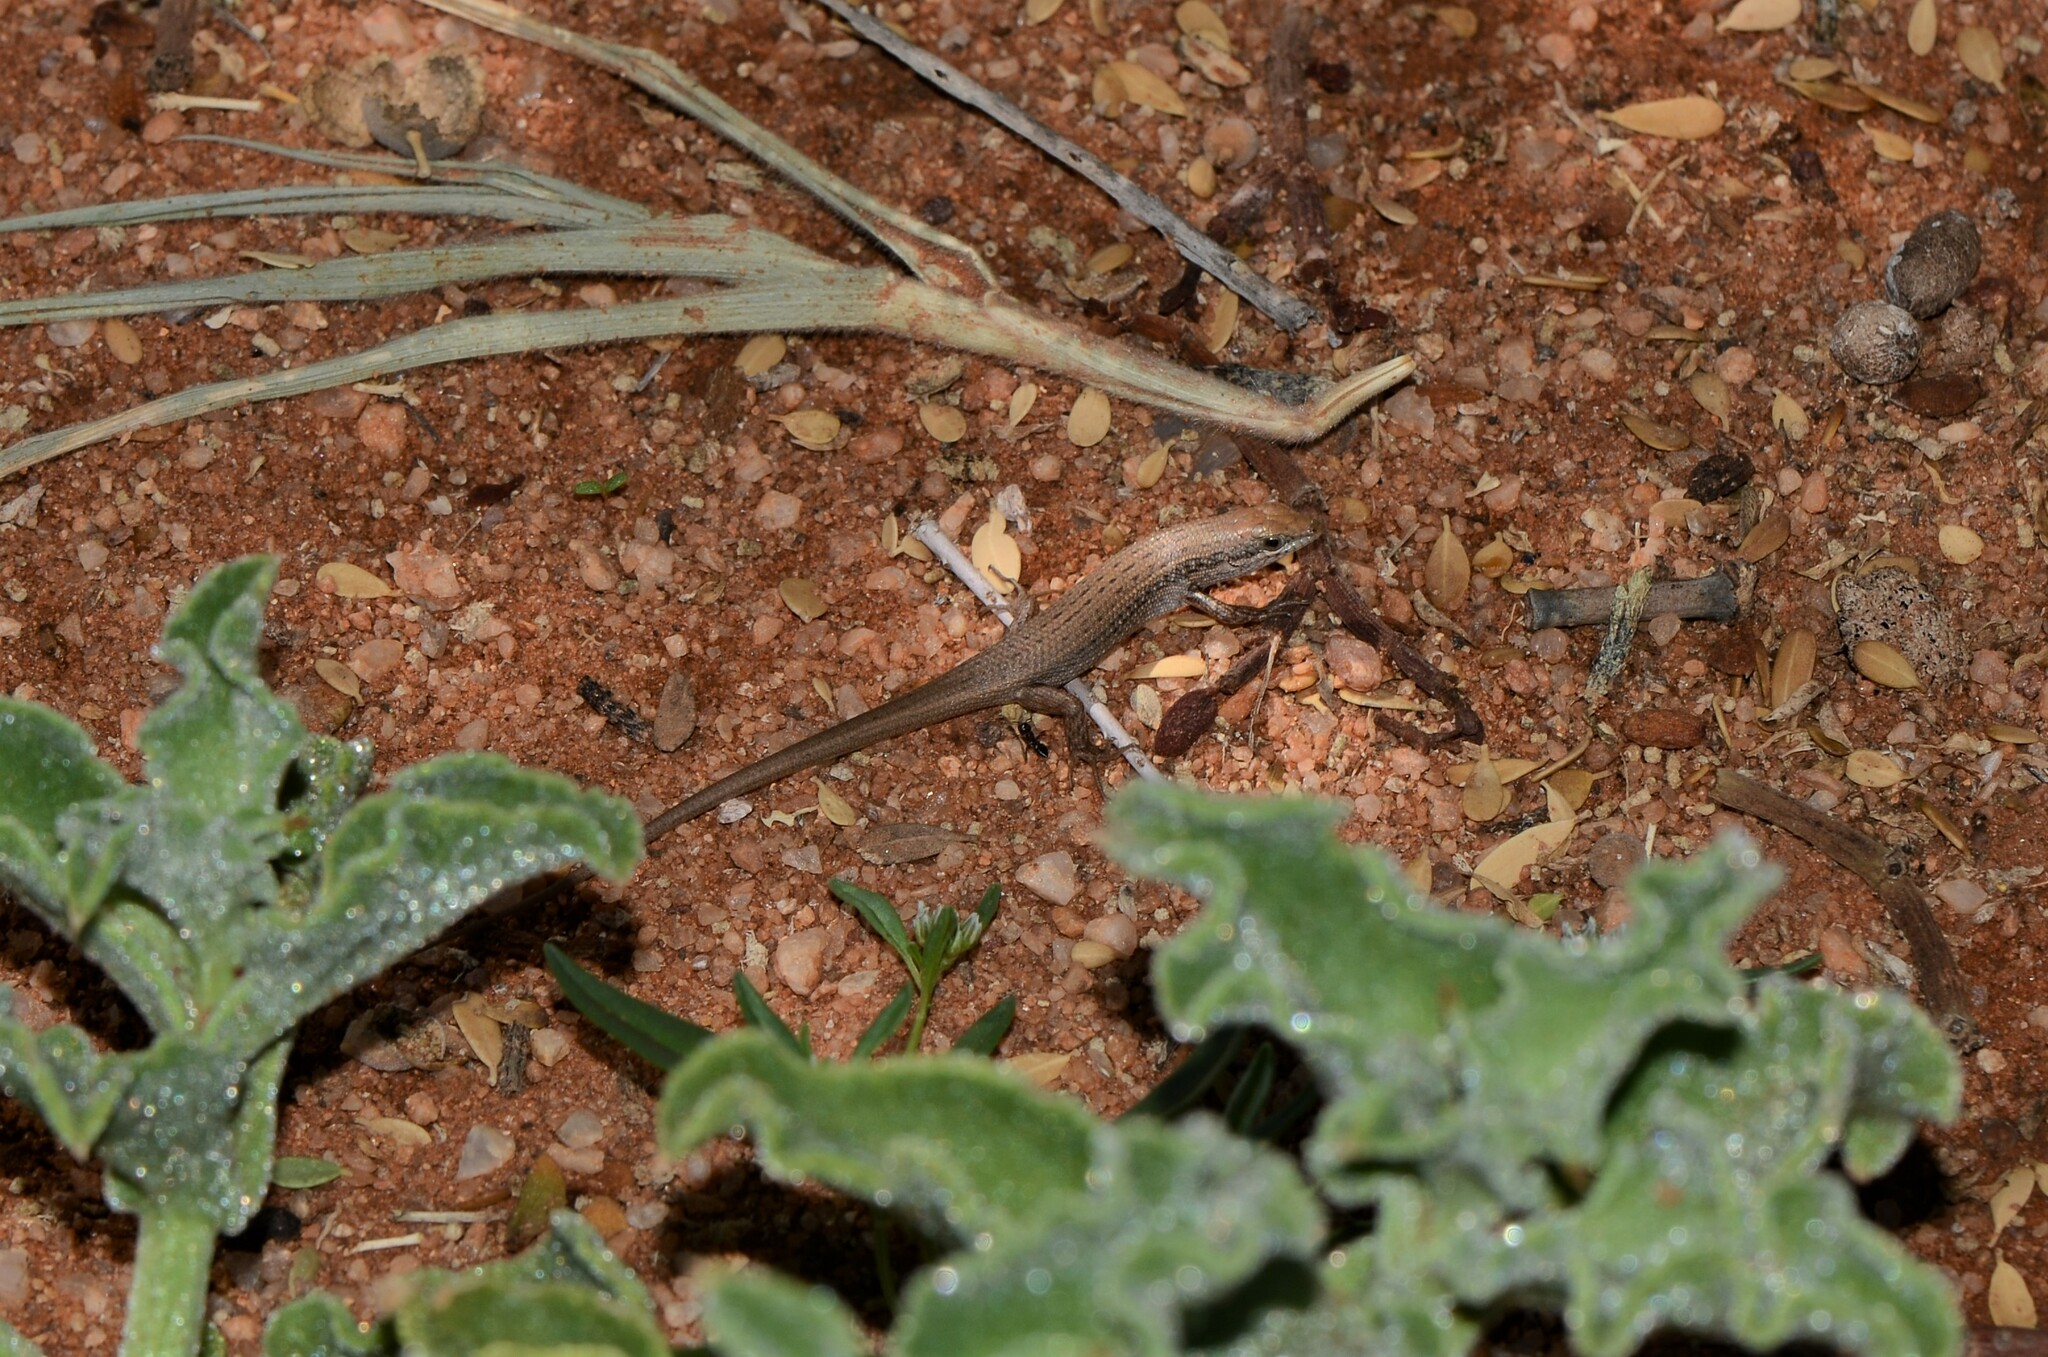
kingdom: Animalia
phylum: Chordata
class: Squamata
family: Scincidae
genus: Trachylepis
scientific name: Trachylepis variegata
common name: Variegated skink
